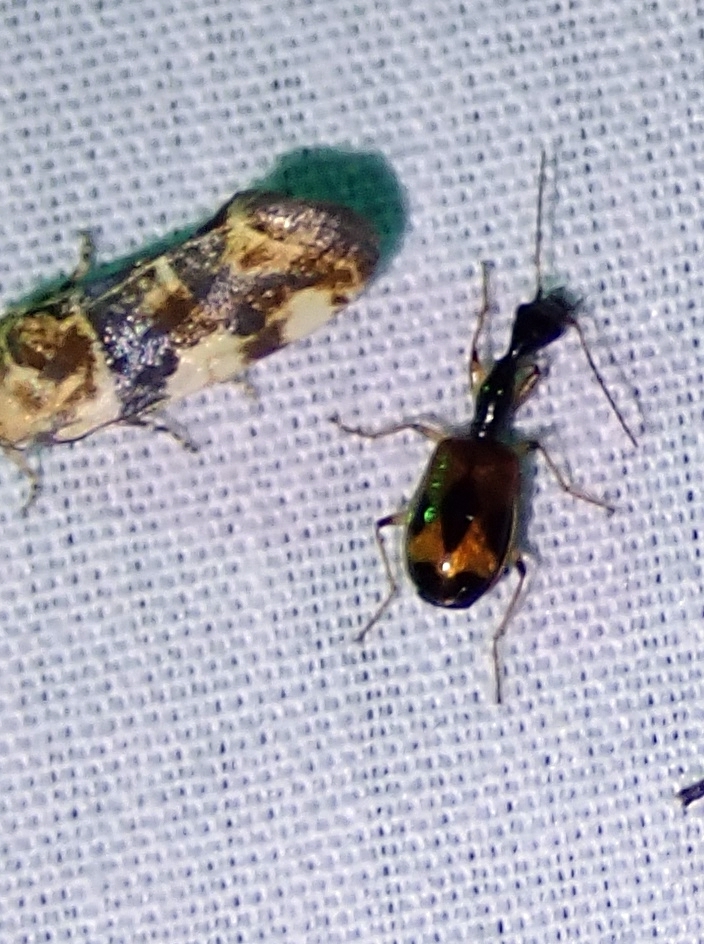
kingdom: Animalia
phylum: Arthropoda
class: Insecta
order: Coleoptera
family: Carabidae
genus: Colliuris
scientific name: Colliuris pensylvanica
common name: Long-necked ground beetle
